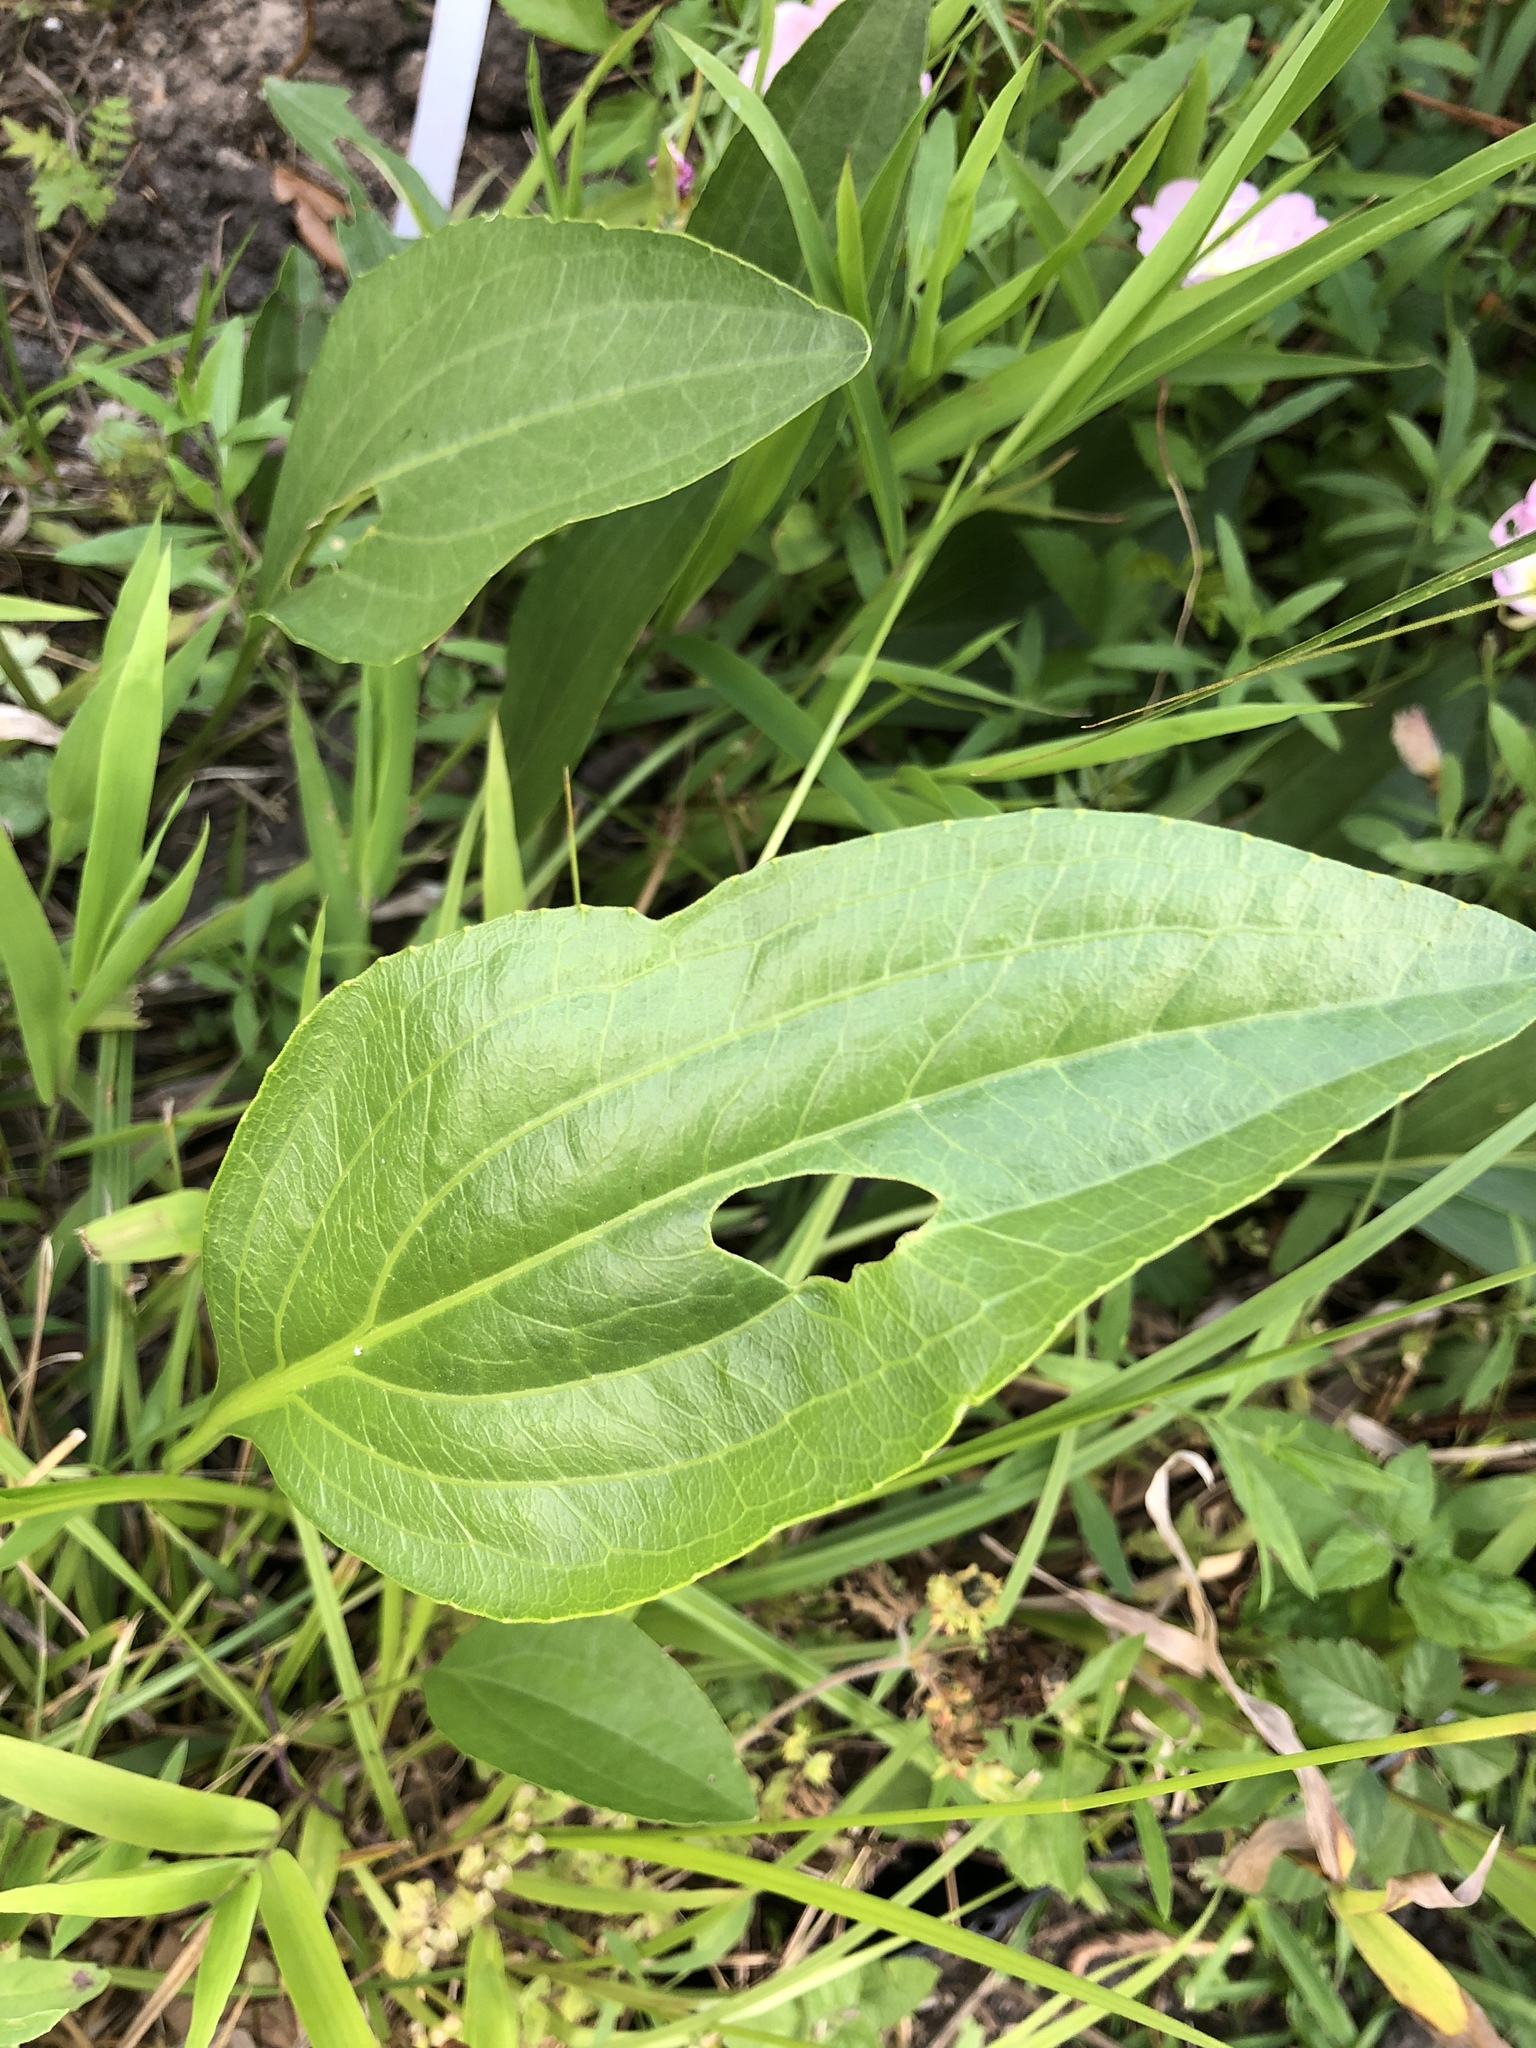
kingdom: Plantae
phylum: Tracheophyta
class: Magnoliopsida
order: Asterales
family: Asteraceae
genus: Rudbeckia
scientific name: Rudbeckia texana
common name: Texas coneflower
